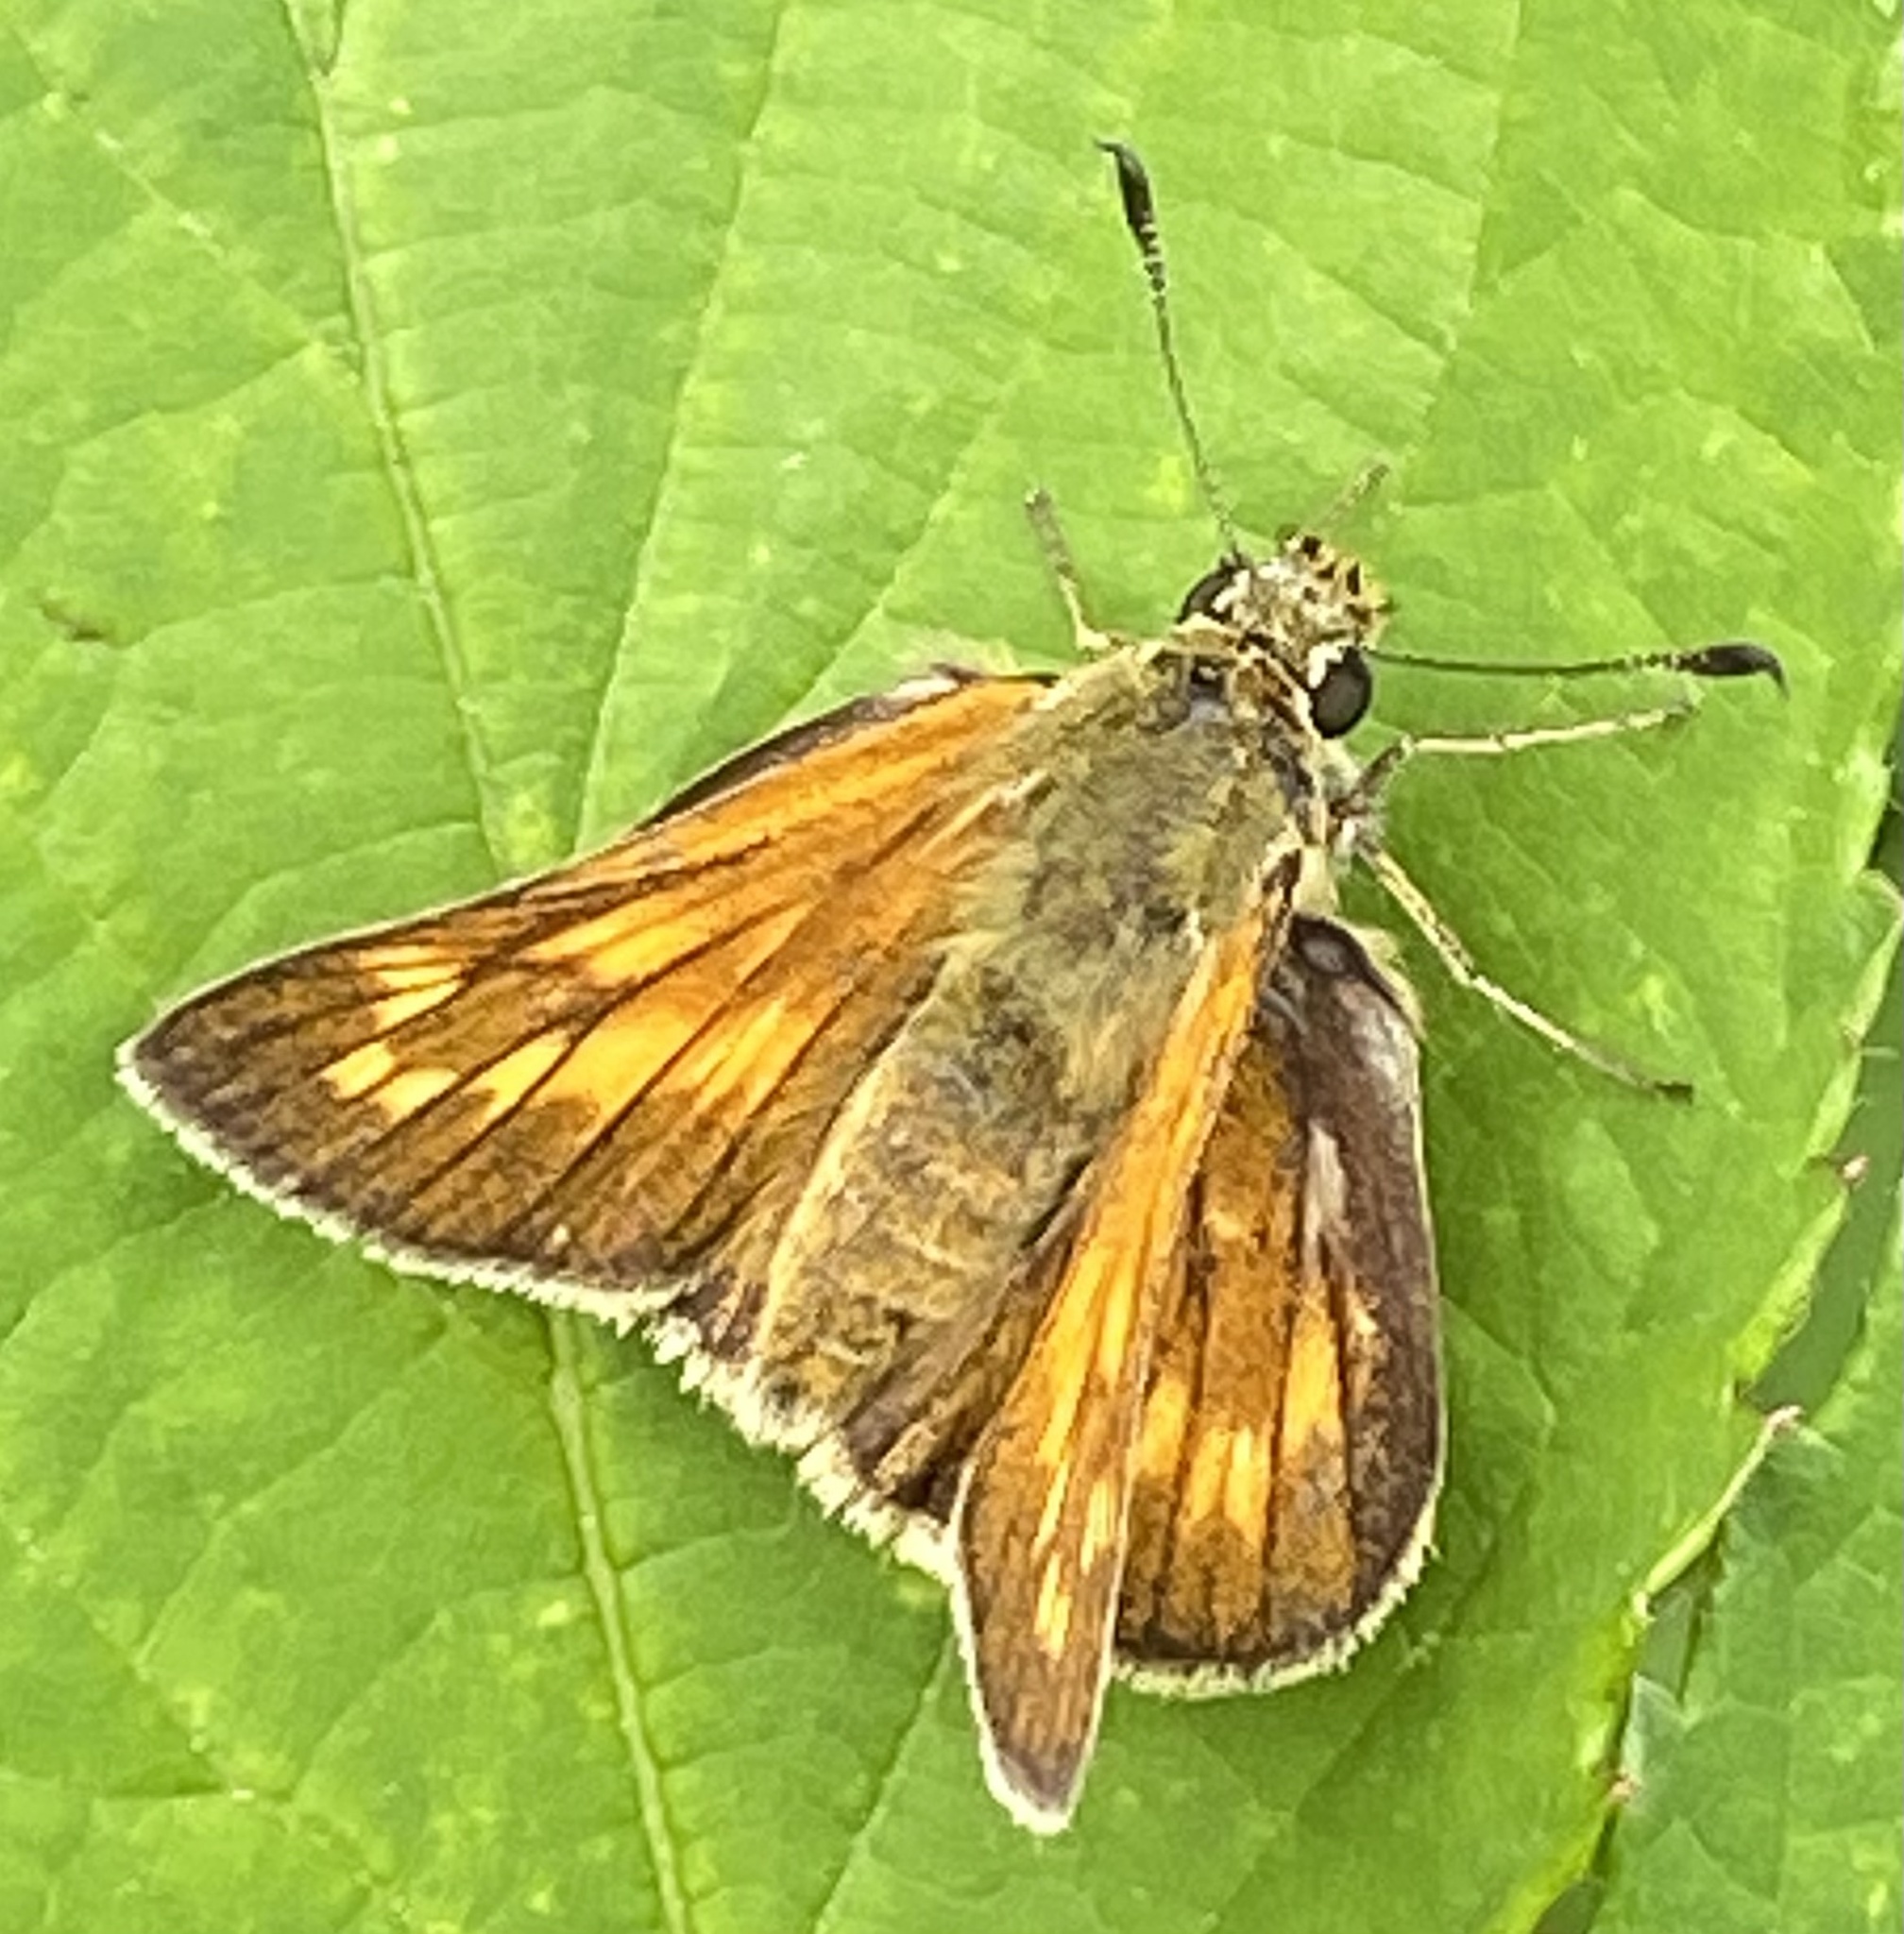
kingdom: Animalia
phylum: Arthropoda
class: Insecta
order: Lepidoptera
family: Hesperiidae
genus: Ochlodes
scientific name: Ochlodes venata
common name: Large skipper
